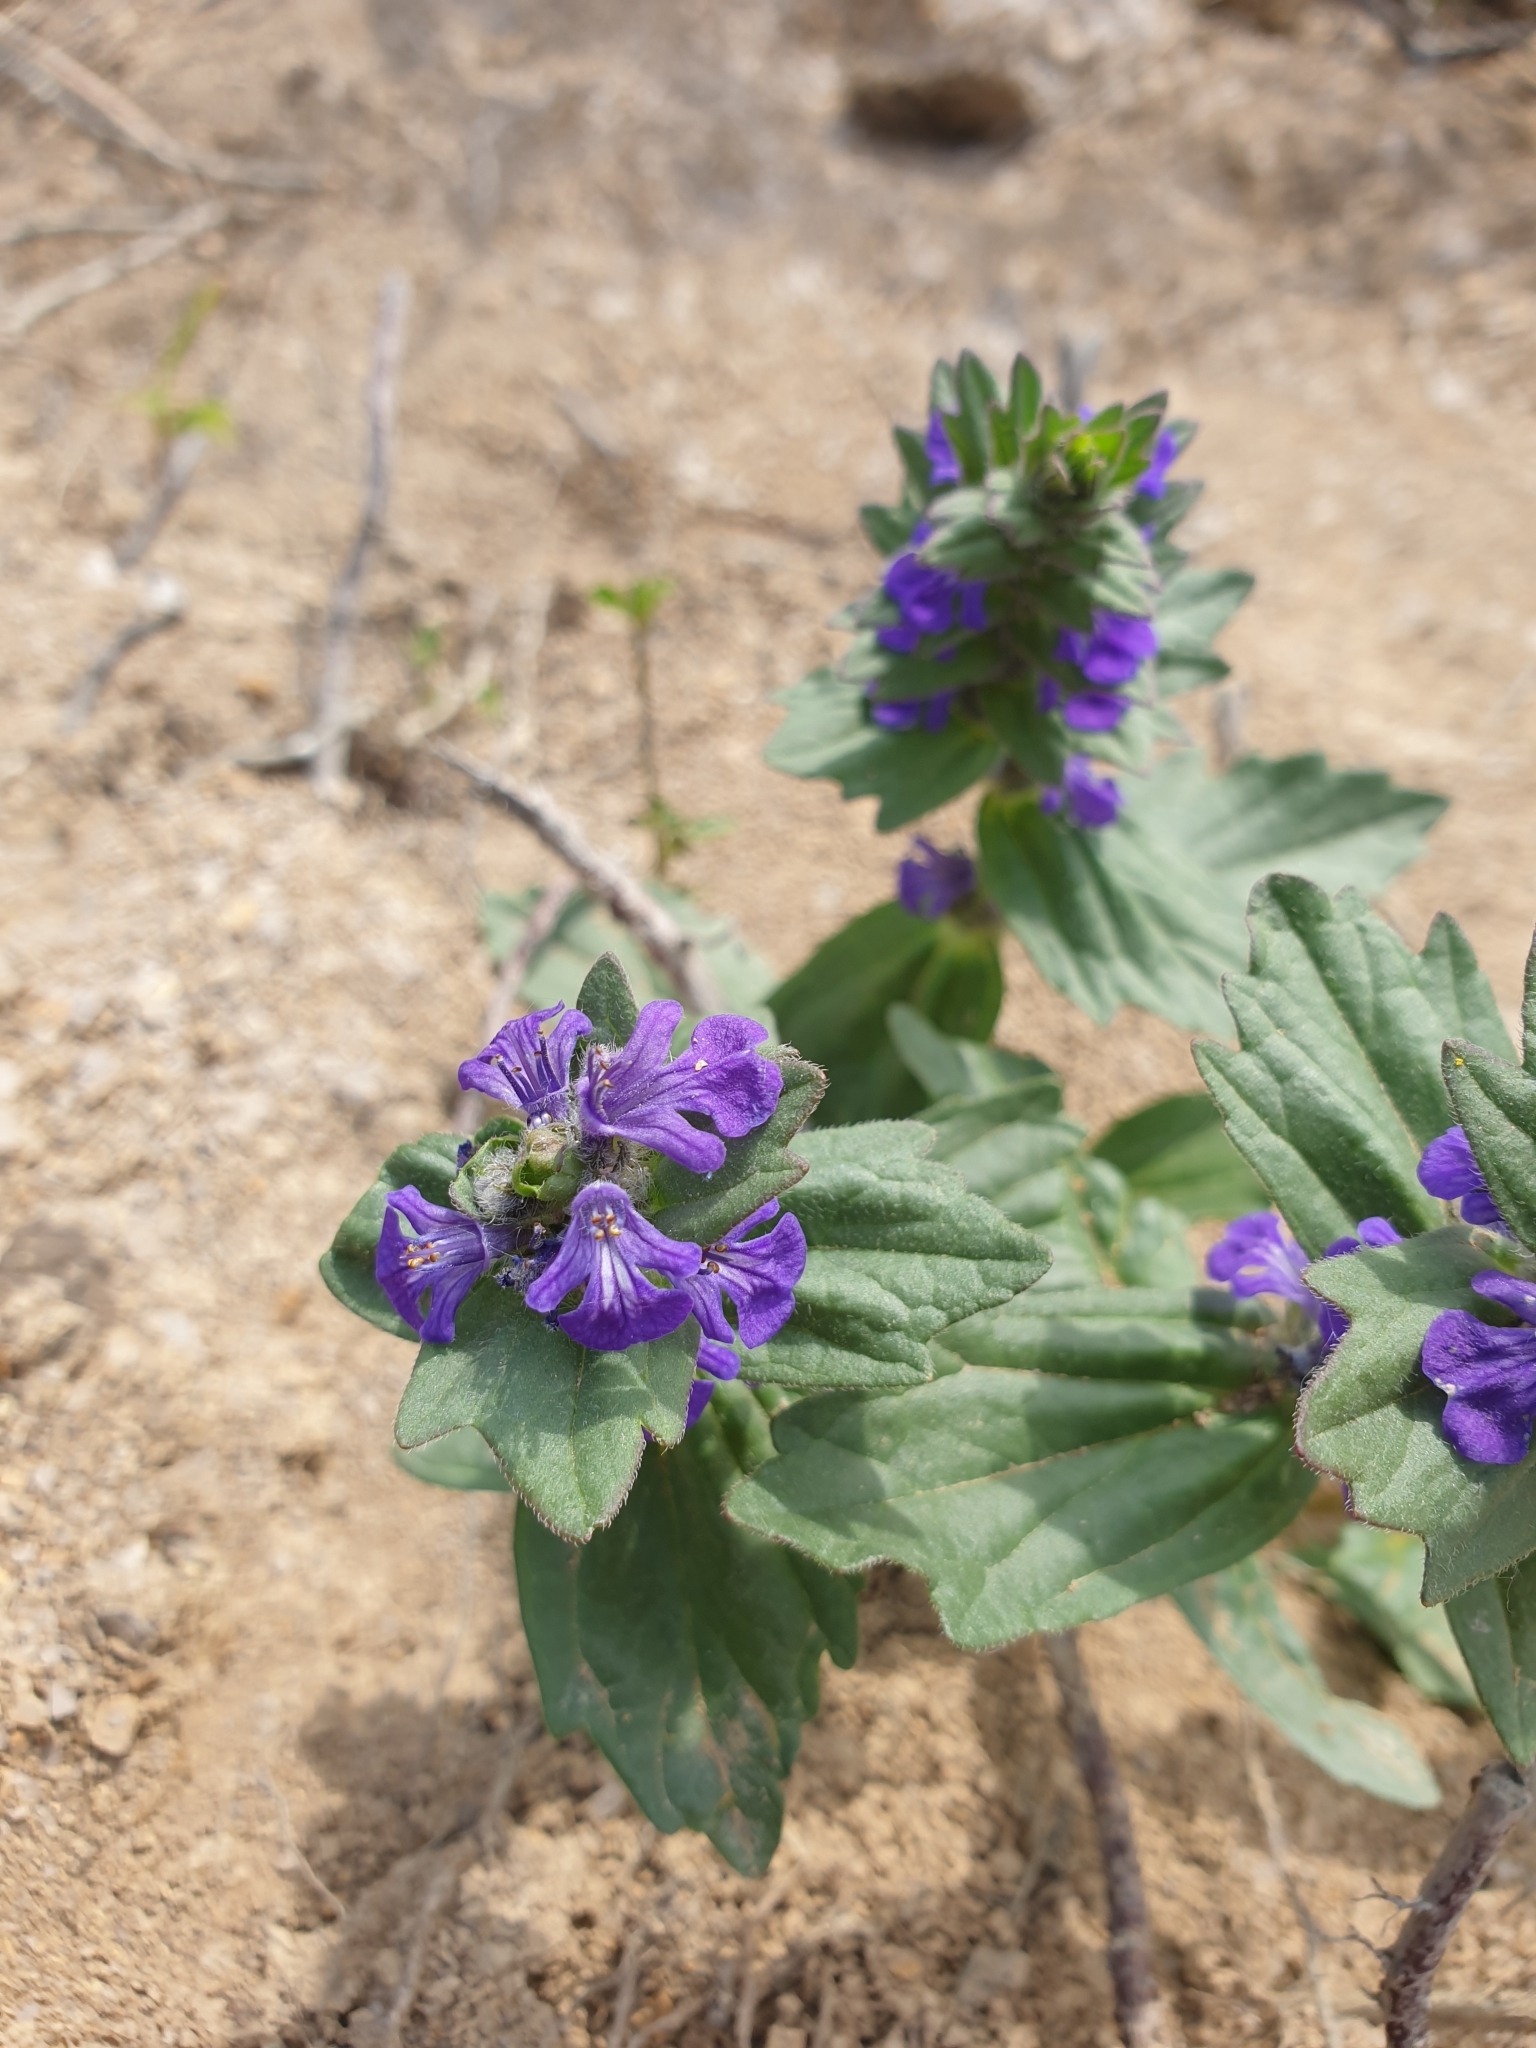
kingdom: Plantae
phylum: Tracheophyta
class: Magnoliopsida
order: Lamiales
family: Lamiaceae
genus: Ajuga
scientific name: Ajuga genevensis
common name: Blue bugle
